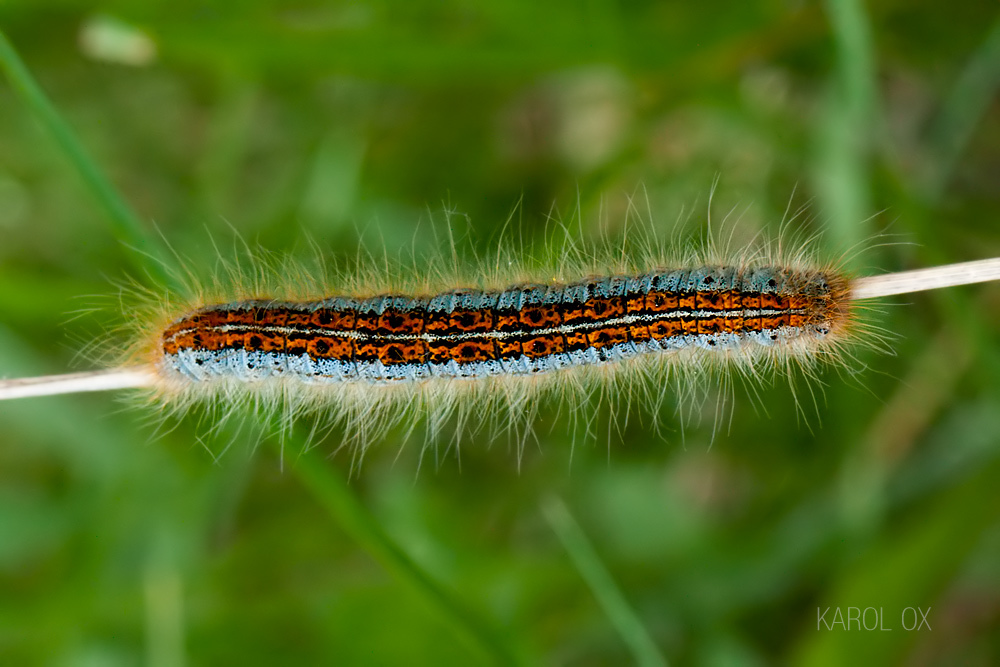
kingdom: Animalia
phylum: Arthropoda
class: Insecta
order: Lepidoptera
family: Lasiocampidae
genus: Malacosoma
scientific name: Malacosoma castrense
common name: Ground lackey
